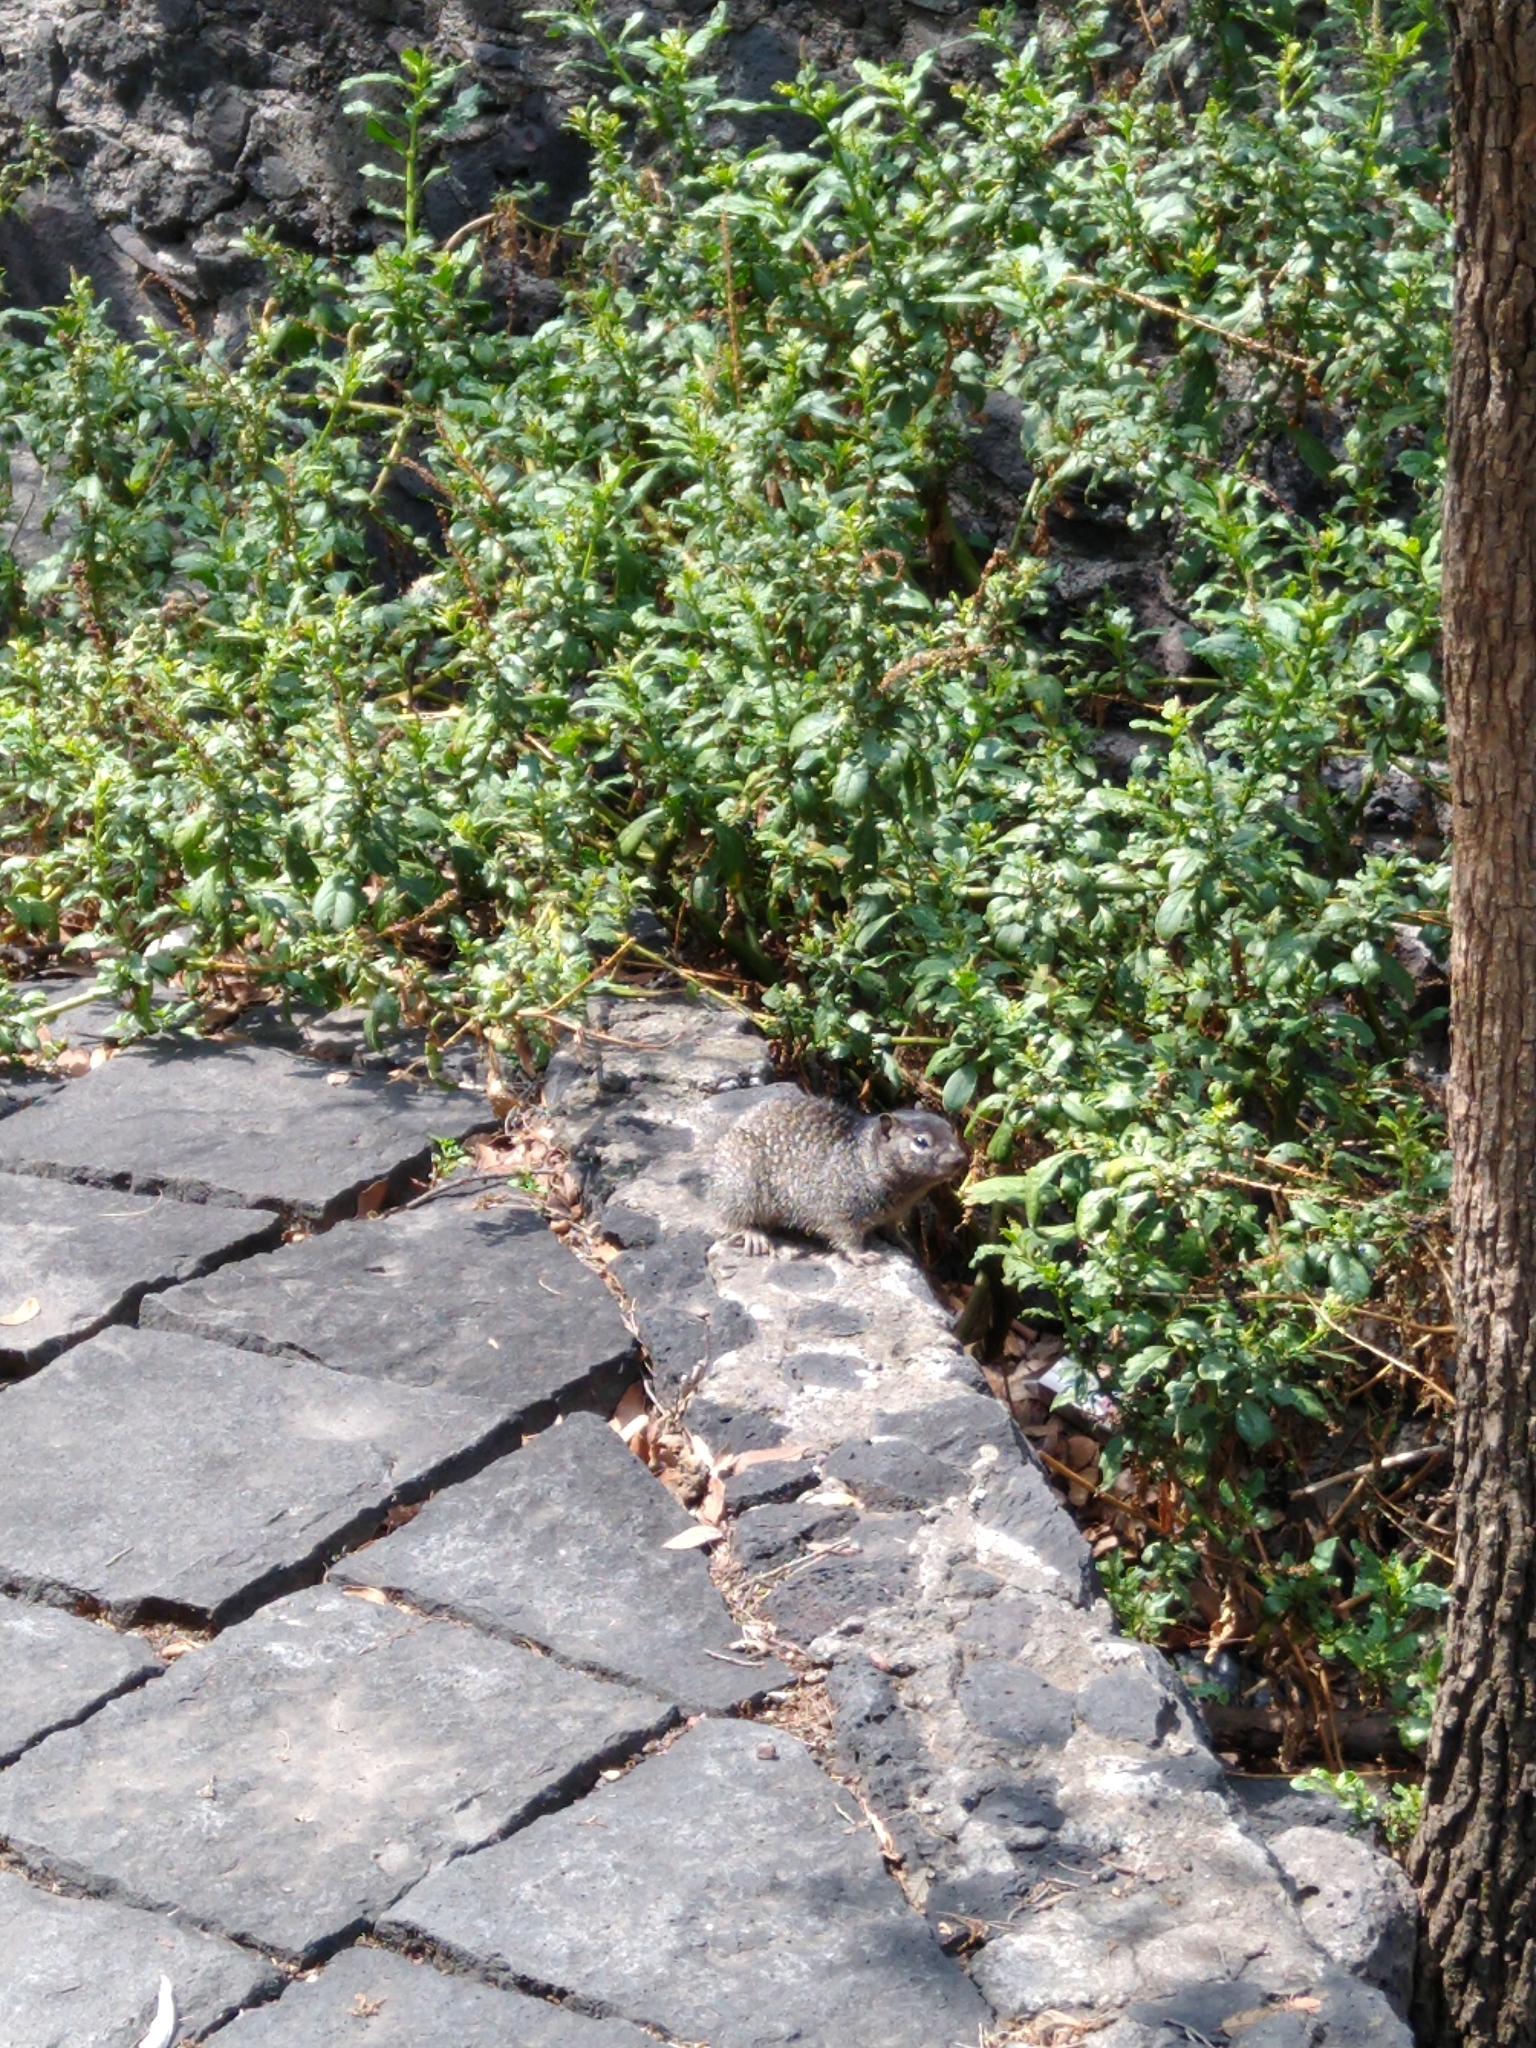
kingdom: Animalia
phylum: Chordata
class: Mammalia
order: Rodentia
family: Sciuridae
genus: Otospermophilus
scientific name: Otospermophilus variegatus
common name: Rock squirrel
